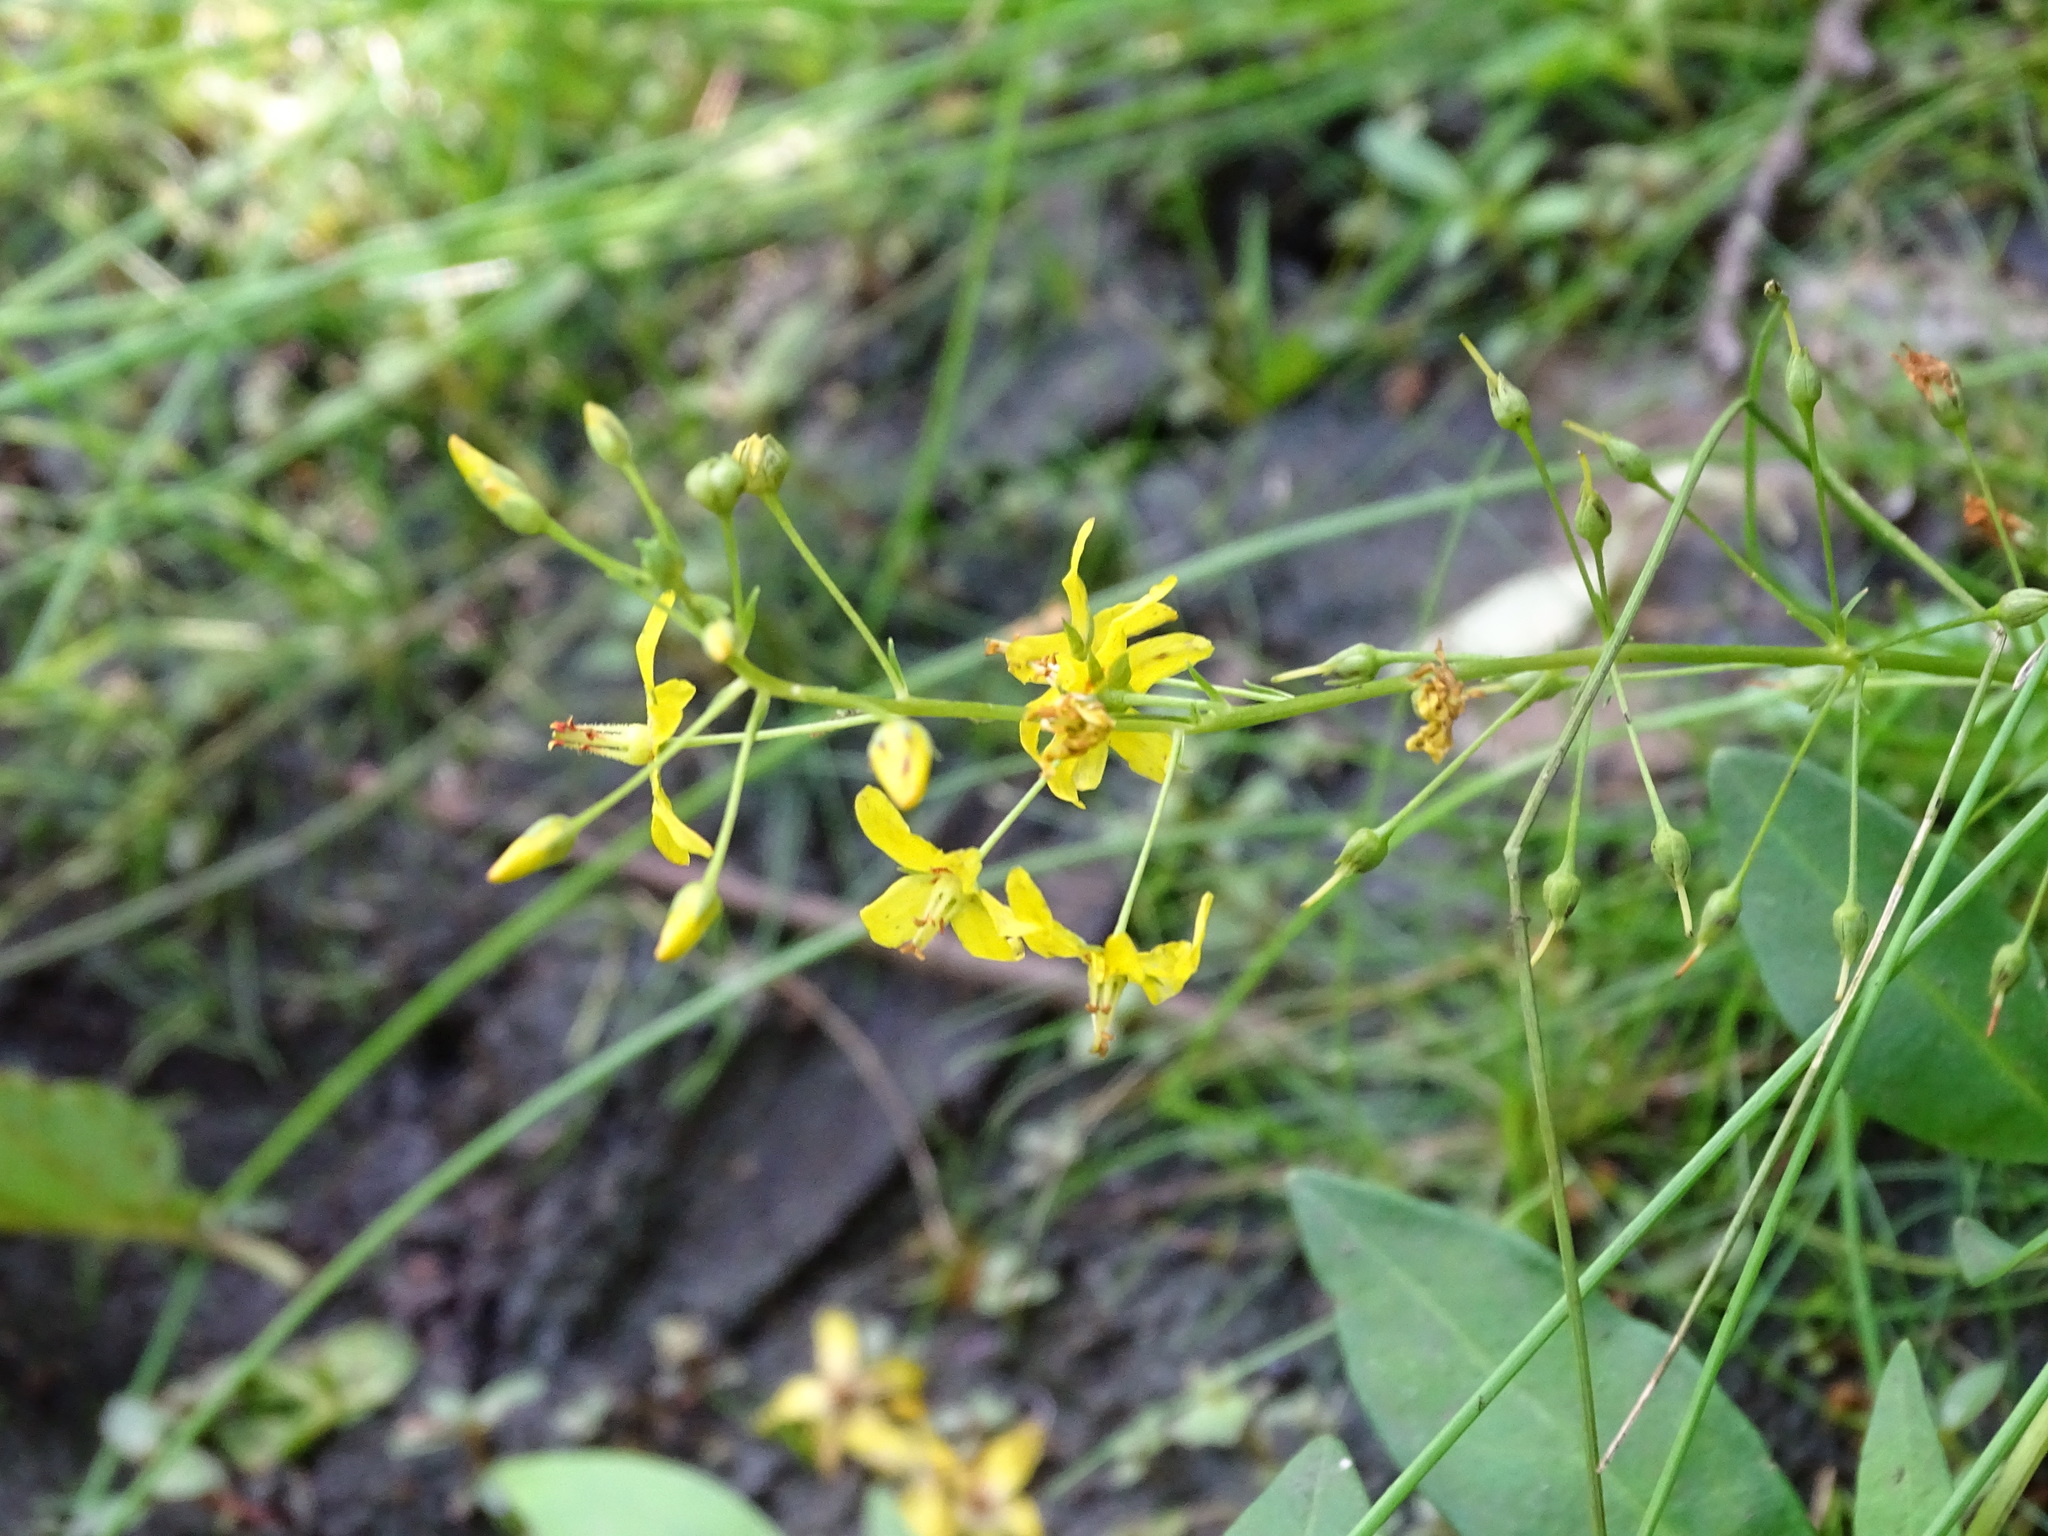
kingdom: Plantae
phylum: Tracheophyta
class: Magnoliopsida
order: Ericales
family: Primulaceae
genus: Lysimachia
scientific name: Lysimachia terrestris
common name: Lake loosestrife
